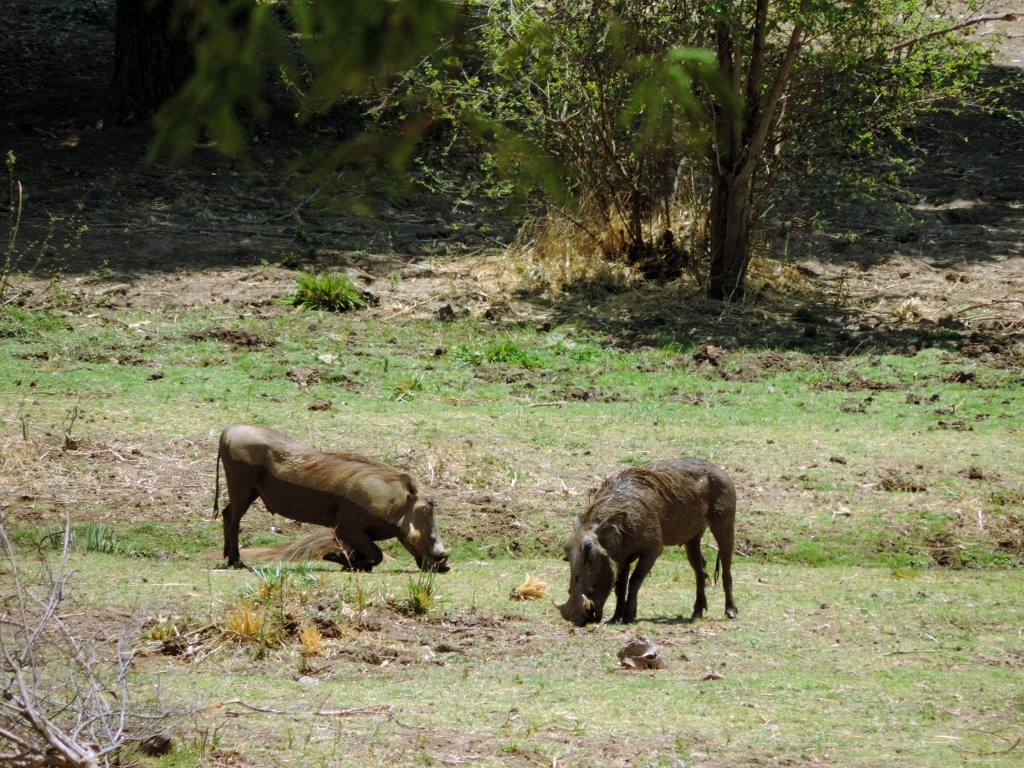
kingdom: Animalia
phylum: Chordata
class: Mammalia
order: Artiodactyla
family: Suidae
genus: Phacochoerus
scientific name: Phacochoerus africanus
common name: Common warthog
